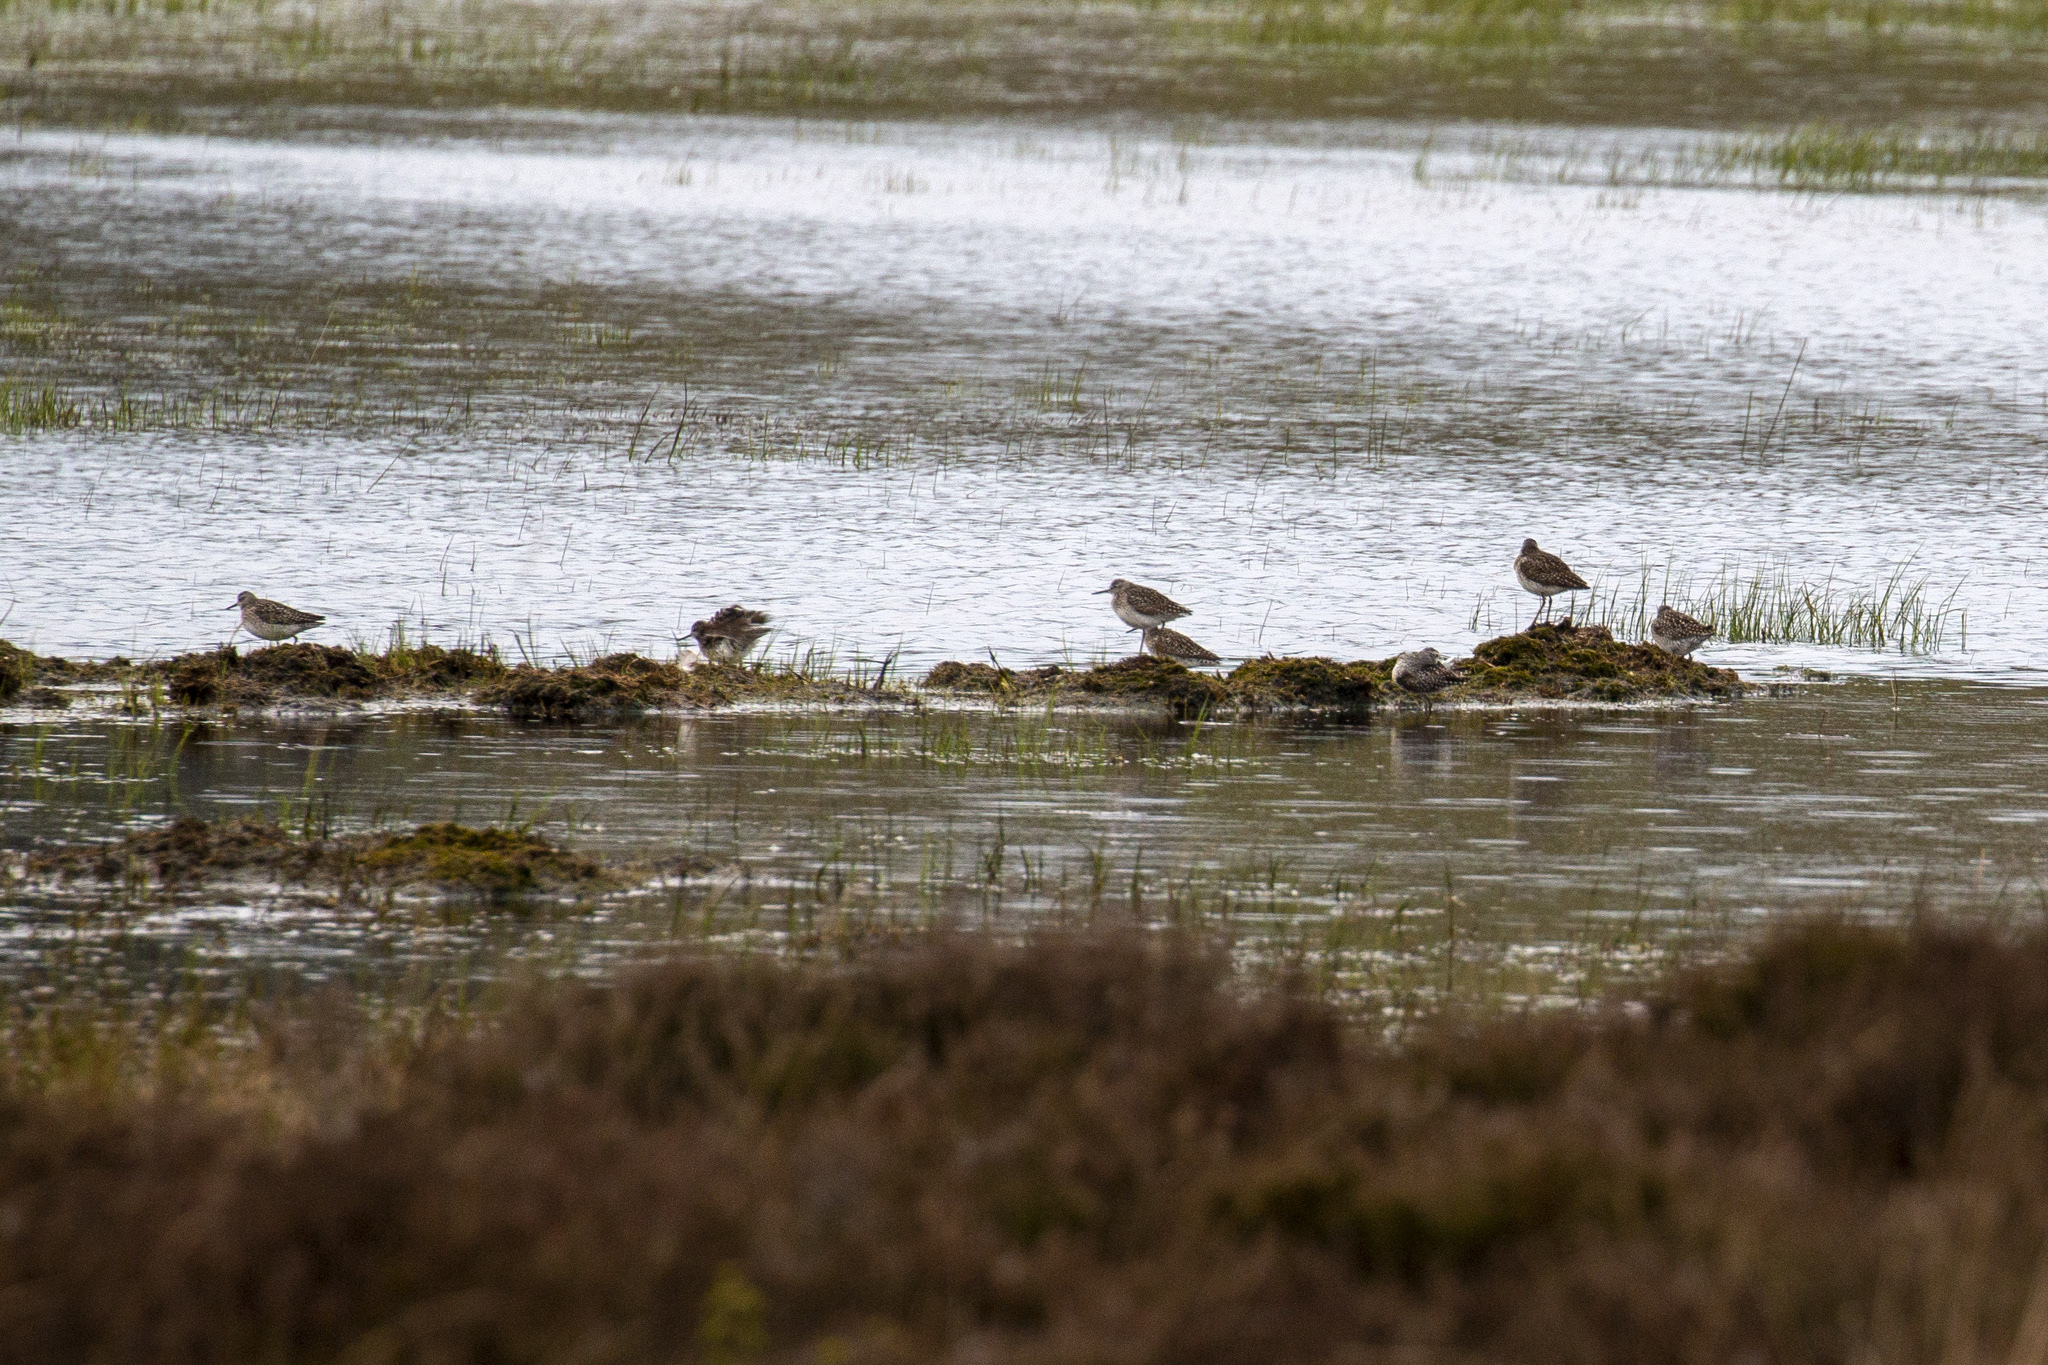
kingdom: Animalia
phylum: Chordata
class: Aves
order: Charadriiformes
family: Scolopacidae
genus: Tringa
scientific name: Tringa glareola
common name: Wood sandpiper
